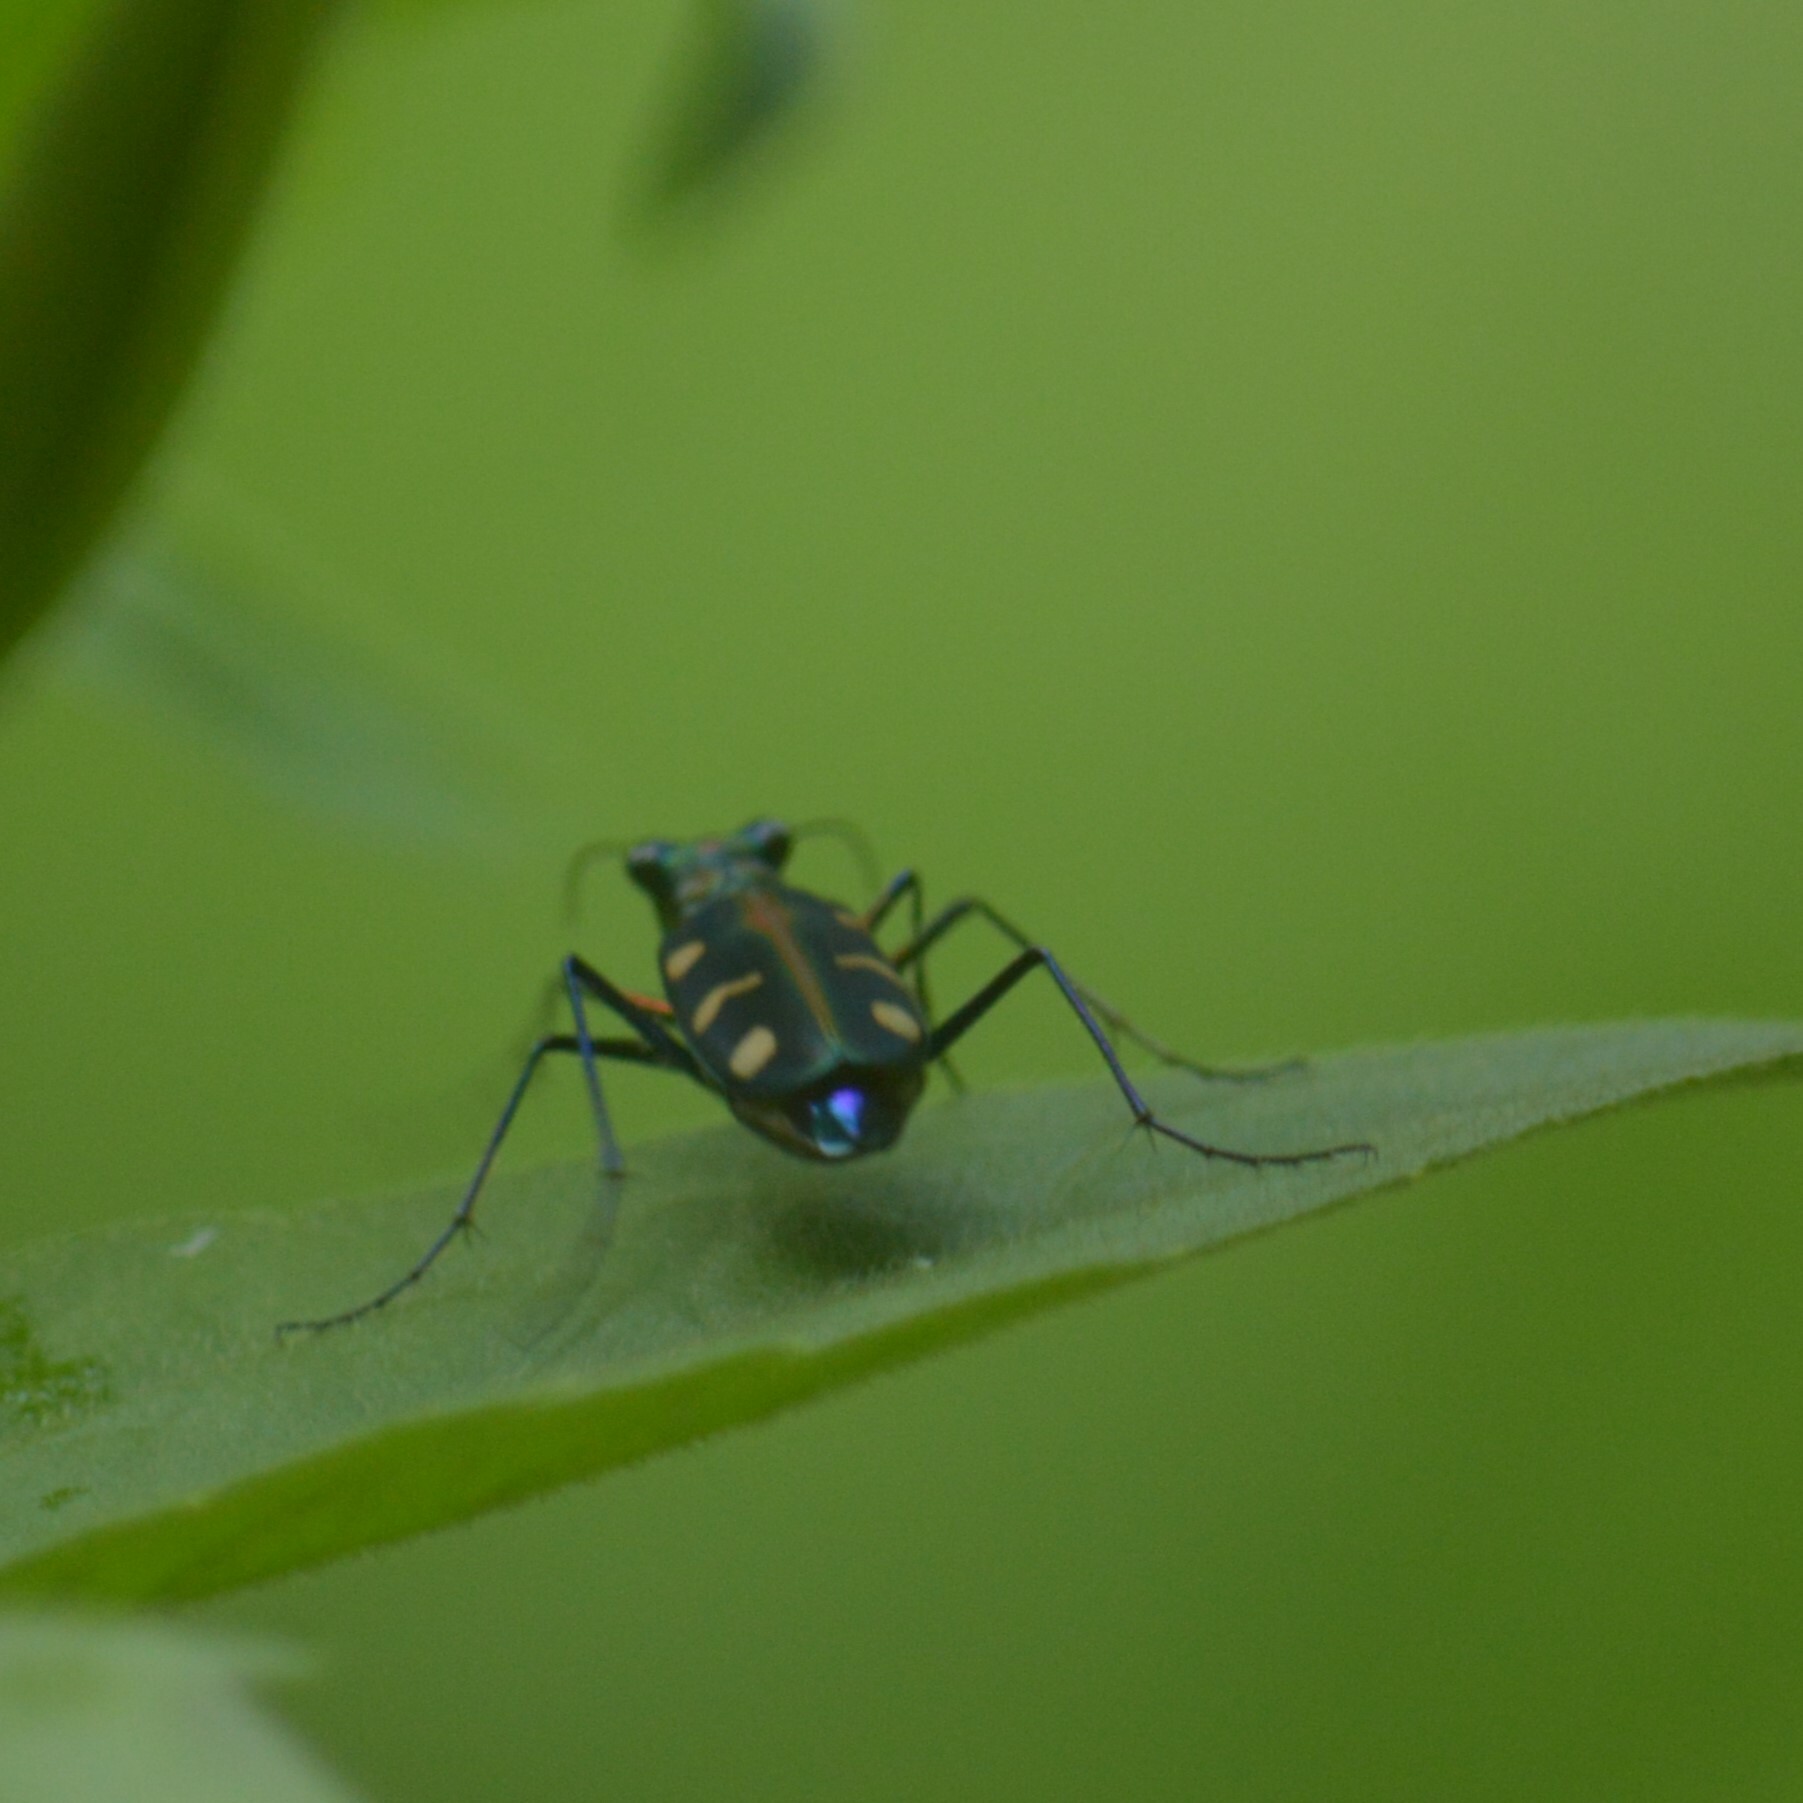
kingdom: Animalia
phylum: Arthropoda
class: Insecta
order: Coleoptera
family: Carabidae
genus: Cicindela
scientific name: Cicindela virgula
